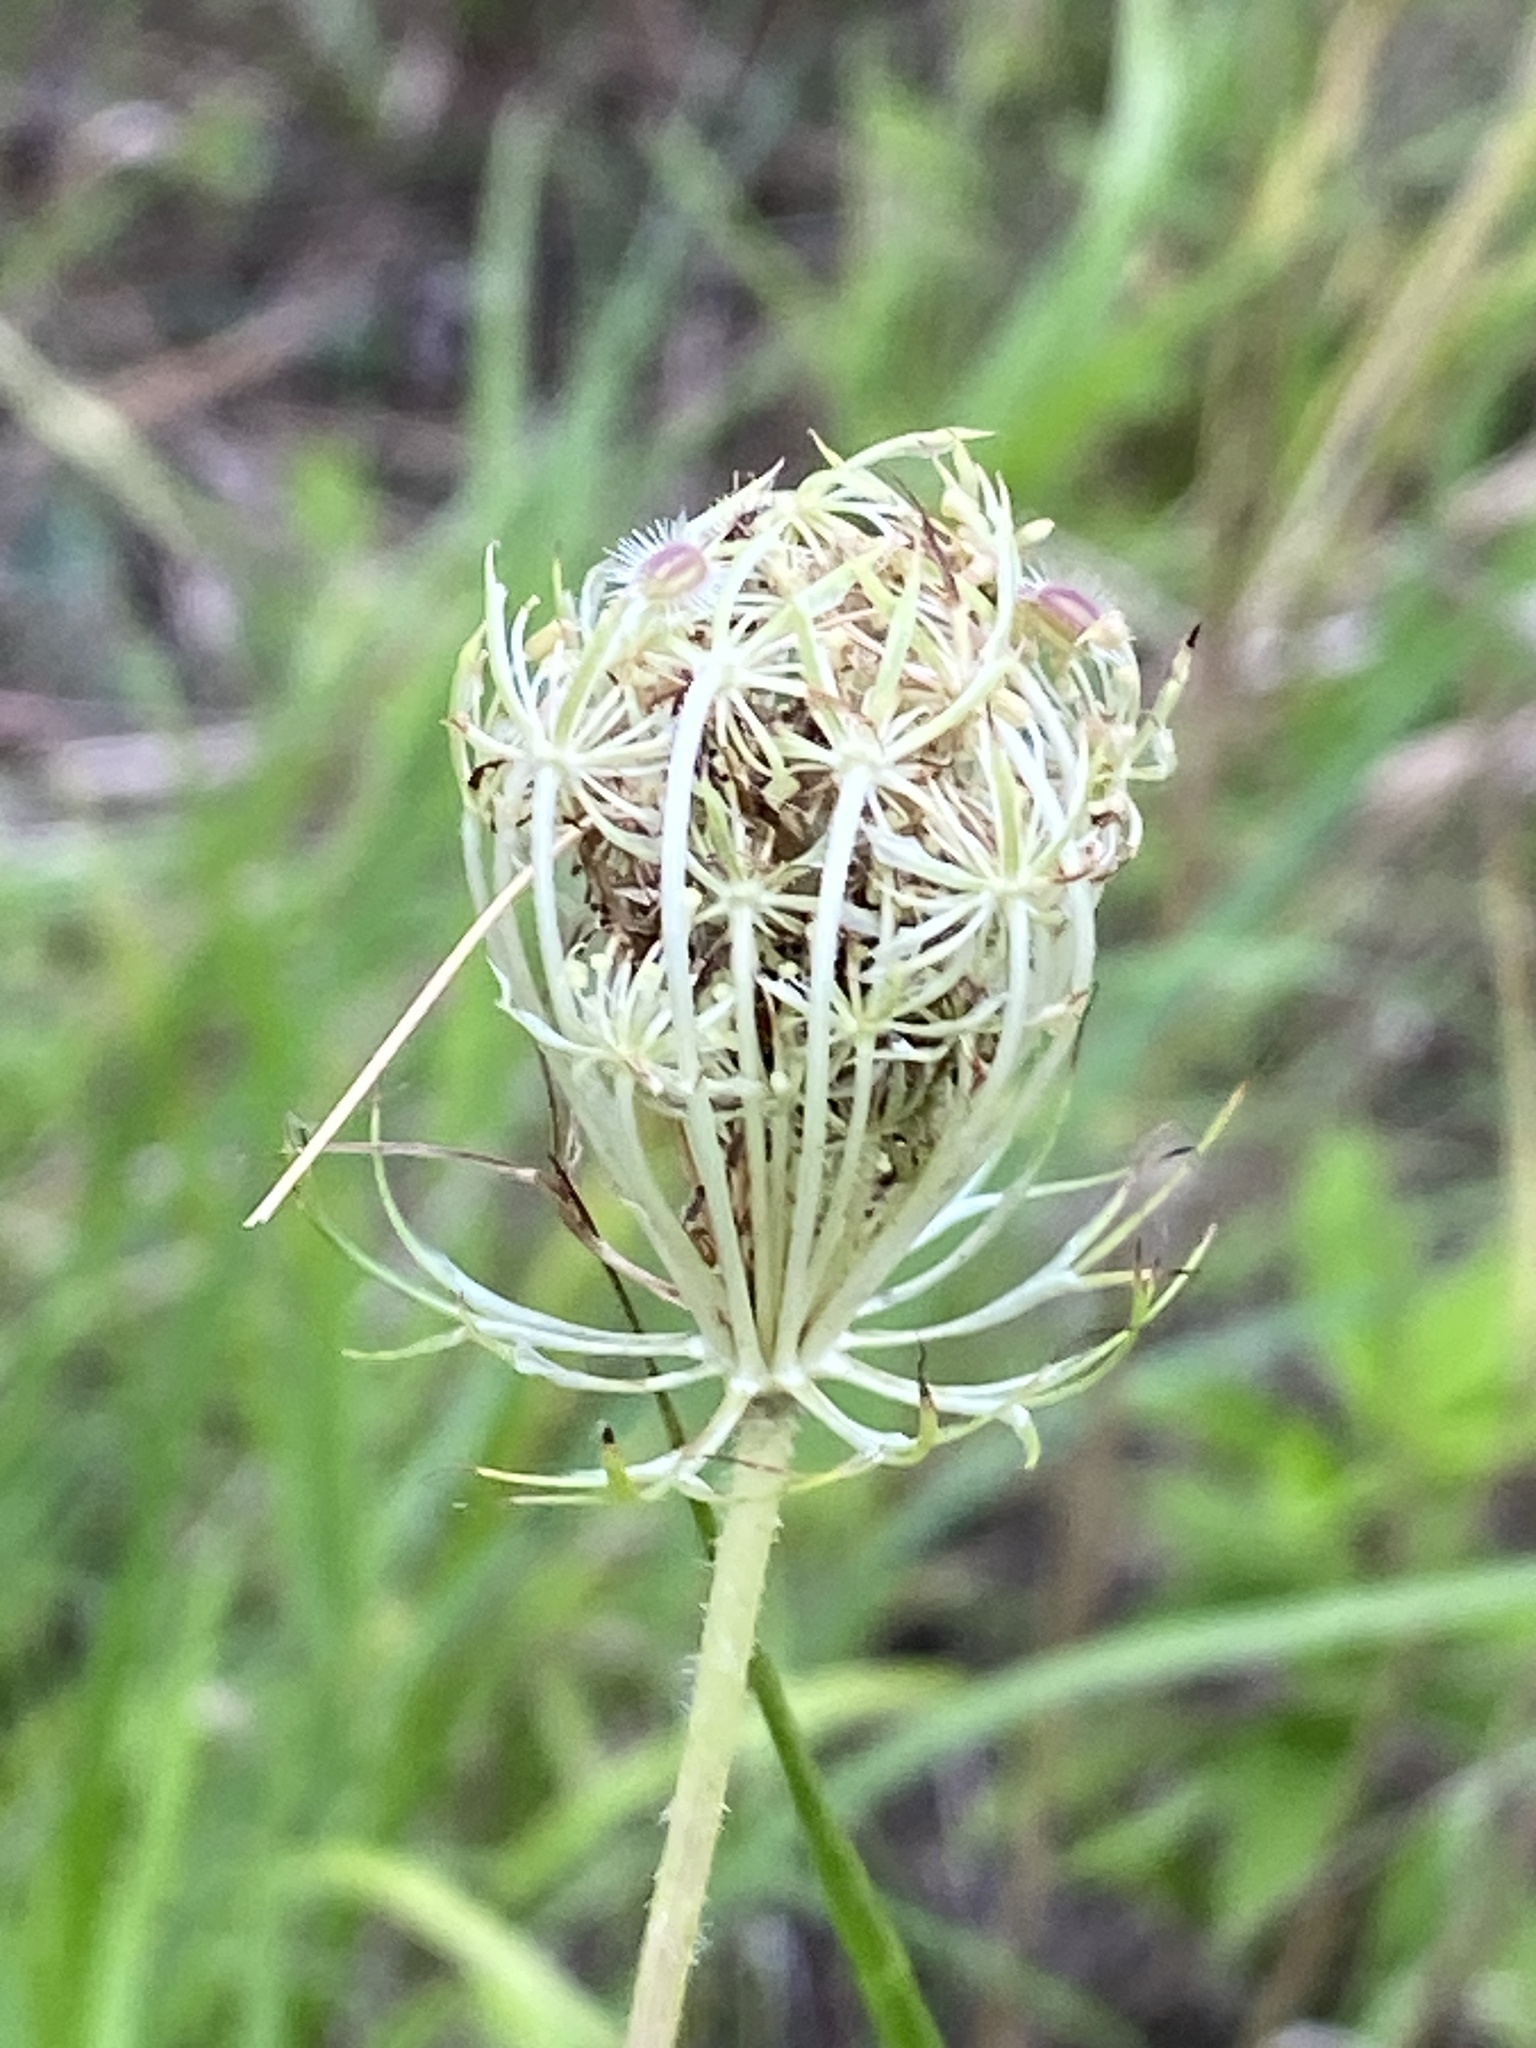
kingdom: Plantae
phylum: Tracheophyta
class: Magnoliopsida
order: Apiales
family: Apiaceae
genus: Daucus
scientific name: Daucus carota
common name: Wild carrot
